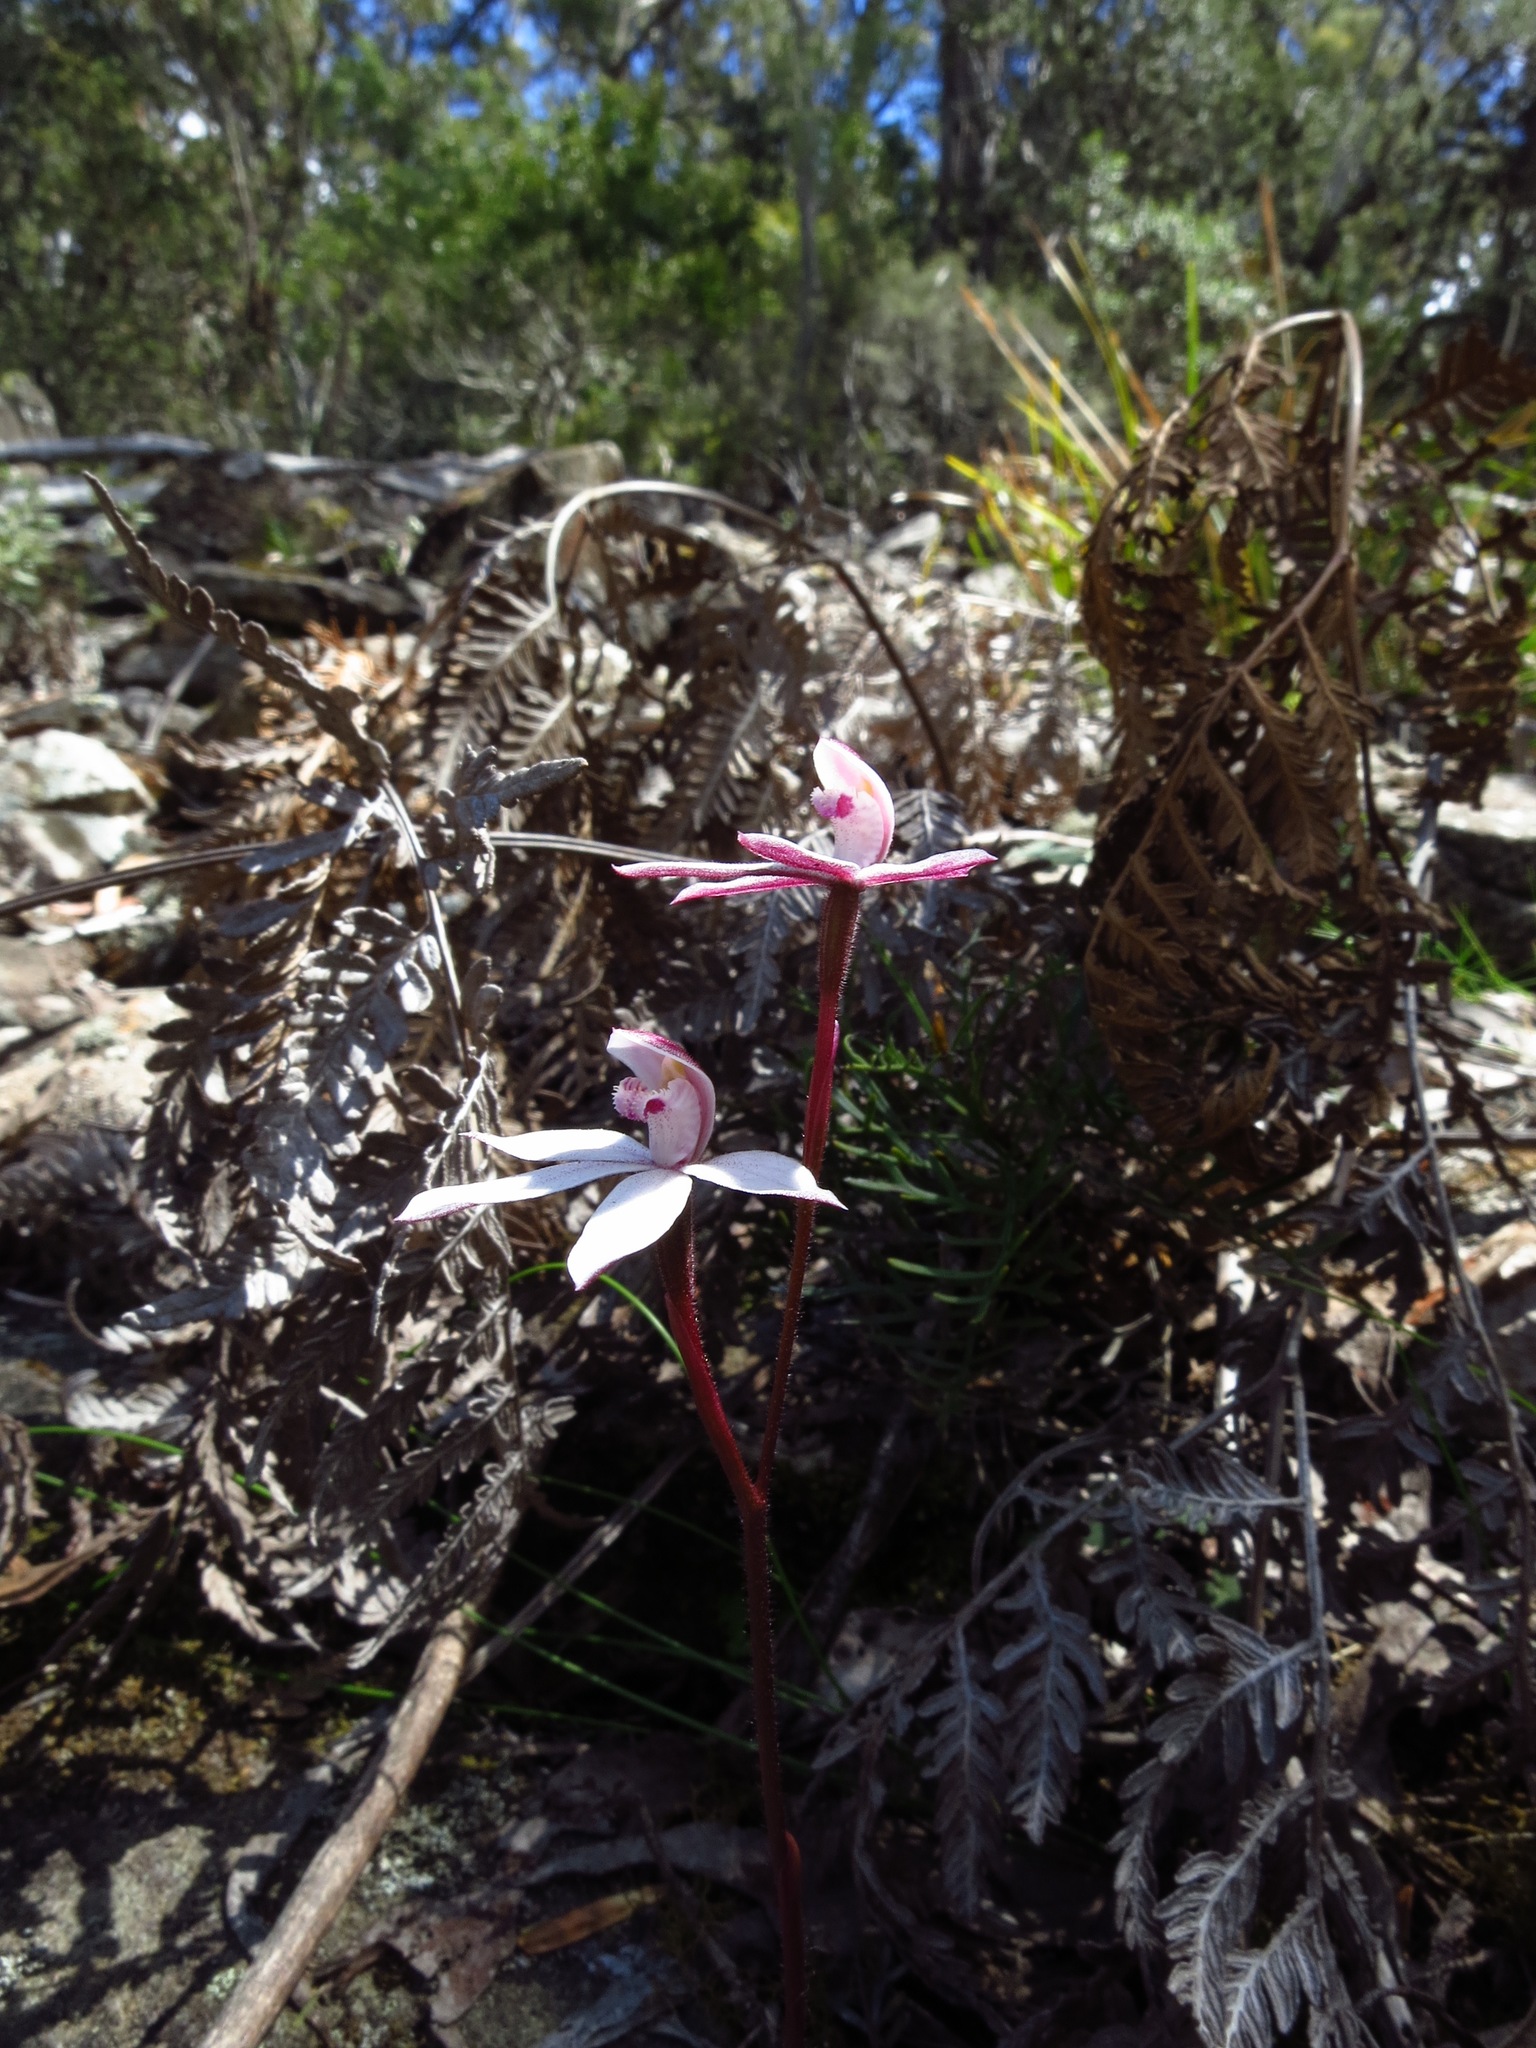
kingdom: Plantae
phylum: Tracheophyta
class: Liliopsida
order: Asparagales
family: Orchidaceae
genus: Caladenia
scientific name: Caladenia alpina
